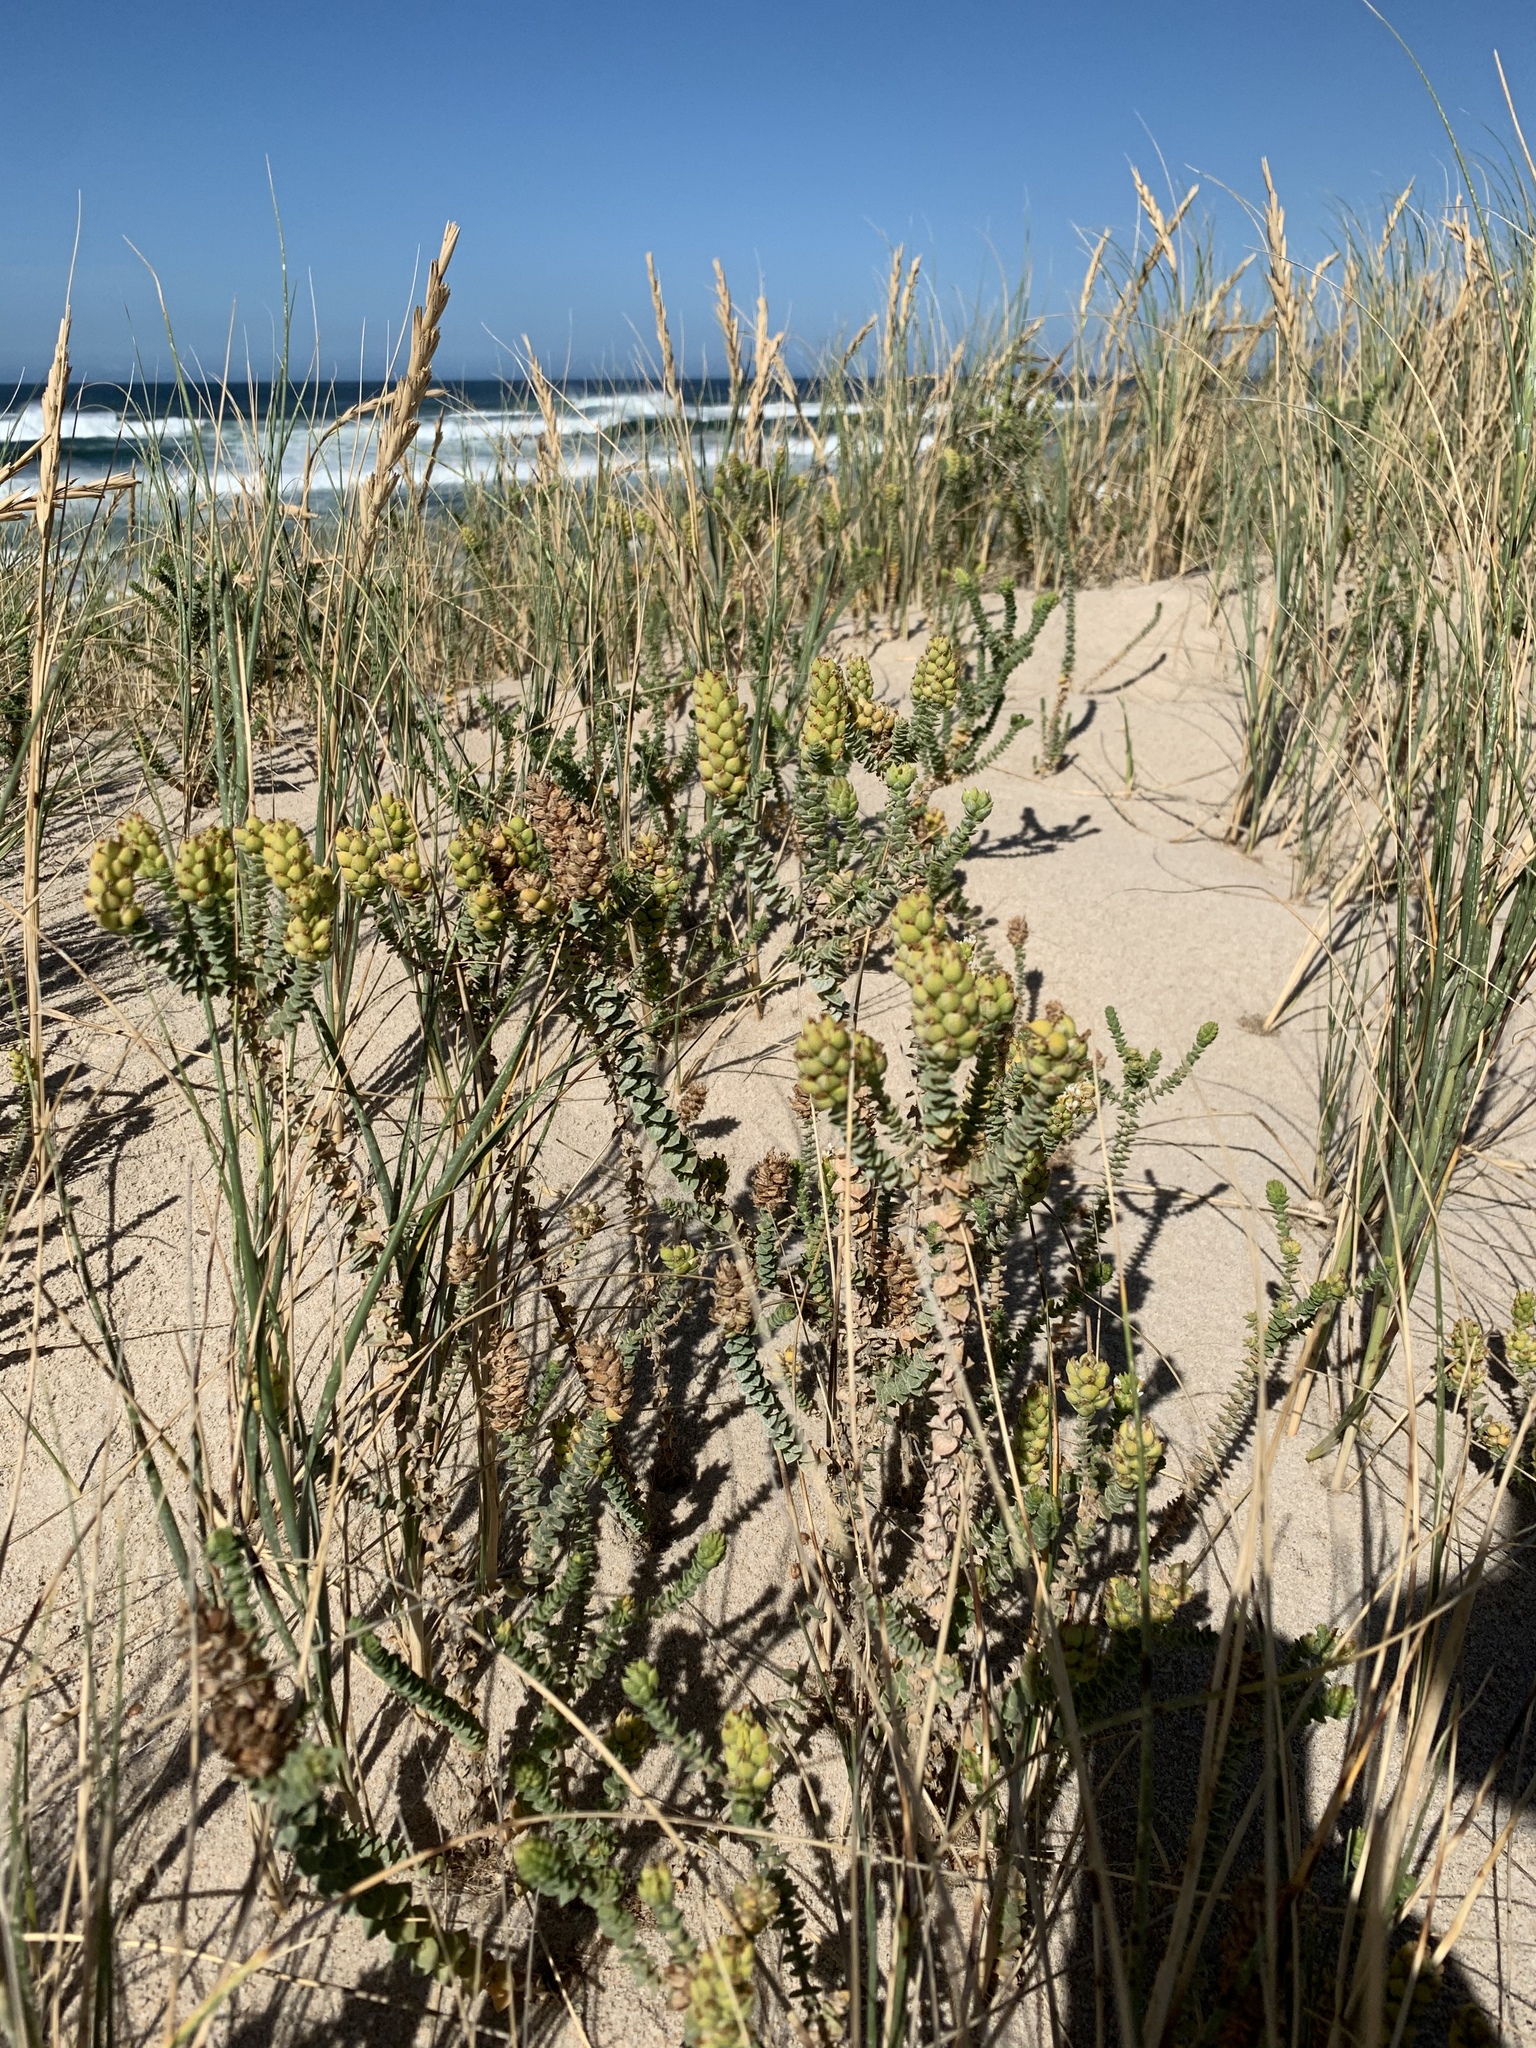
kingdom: Plantae
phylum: Tracheophyta
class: Magnoliopsida
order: Lamiales
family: Scrophulariaceae
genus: Hebenstretia
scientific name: Hebenstretia cordata
